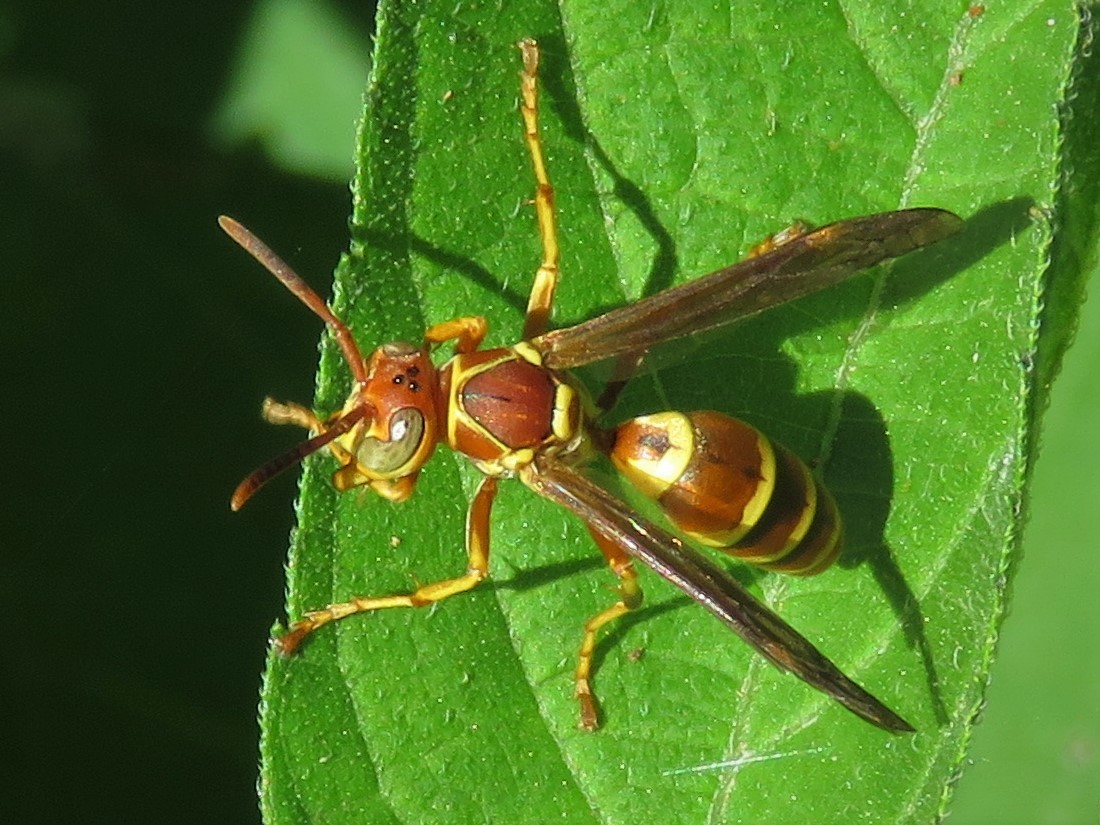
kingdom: Animalia
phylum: Arthropoda
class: Insecta
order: Hymenoptera
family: Eumenidae
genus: Polistes
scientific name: Polistes dorsalis
